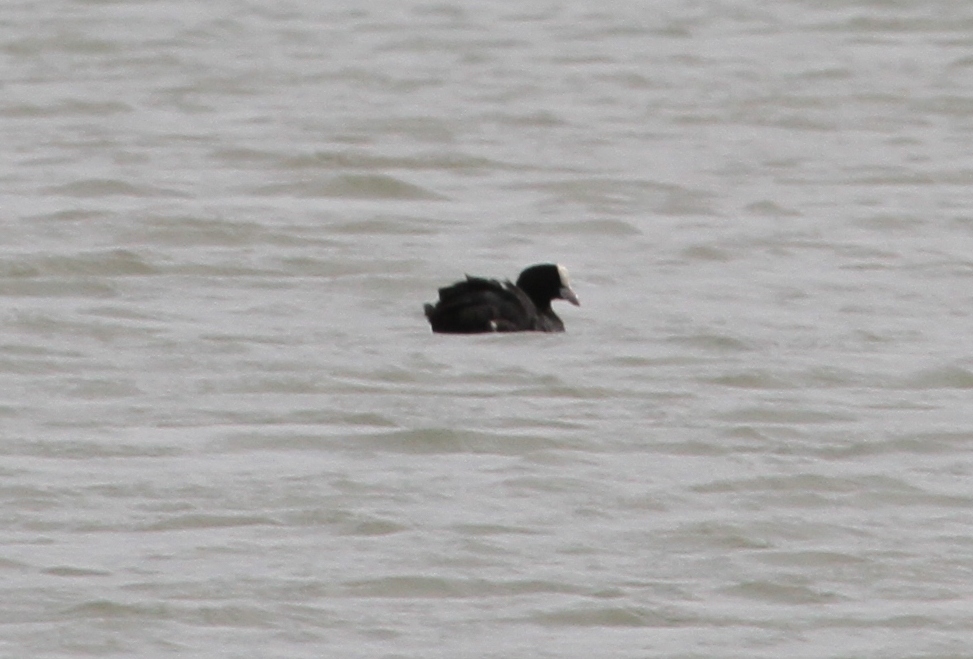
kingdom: Animalia
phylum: Chordata
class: Aves
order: Gruiformes
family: Rallidae
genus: Fulica
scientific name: Fulica atra
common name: Eurasian coot
